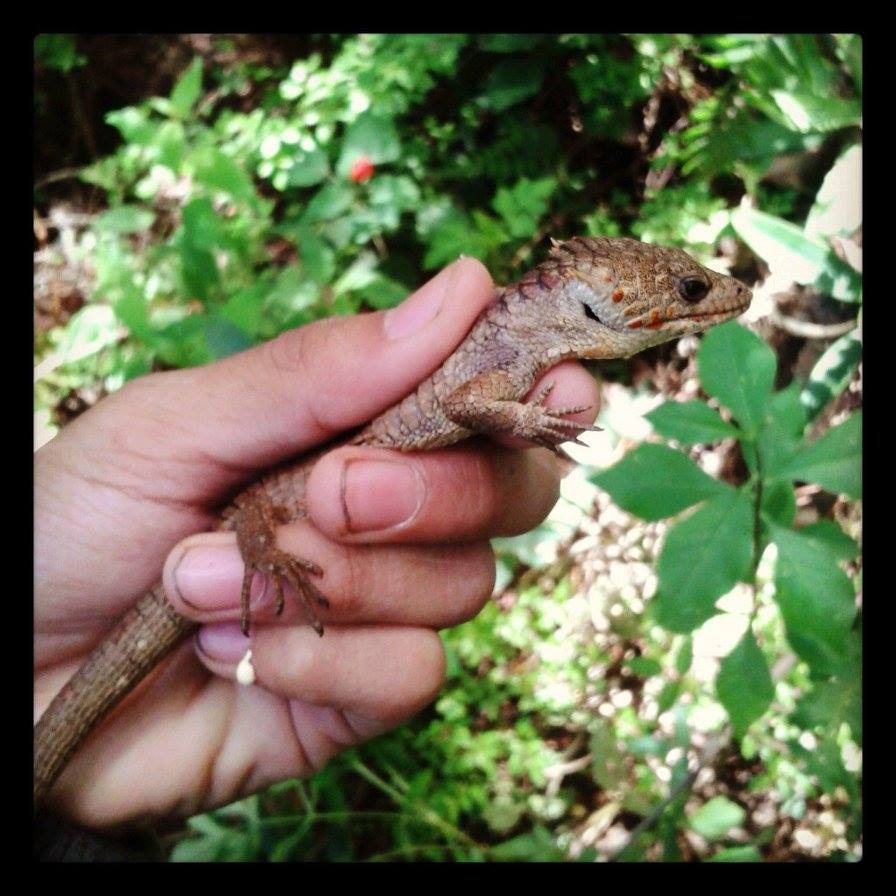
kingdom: Animalia
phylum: Chordata
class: Squamata
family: Anguidae
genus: Abronia
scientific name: Abronia lythrochila
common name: Red-lipped arboreal alligator lizard
